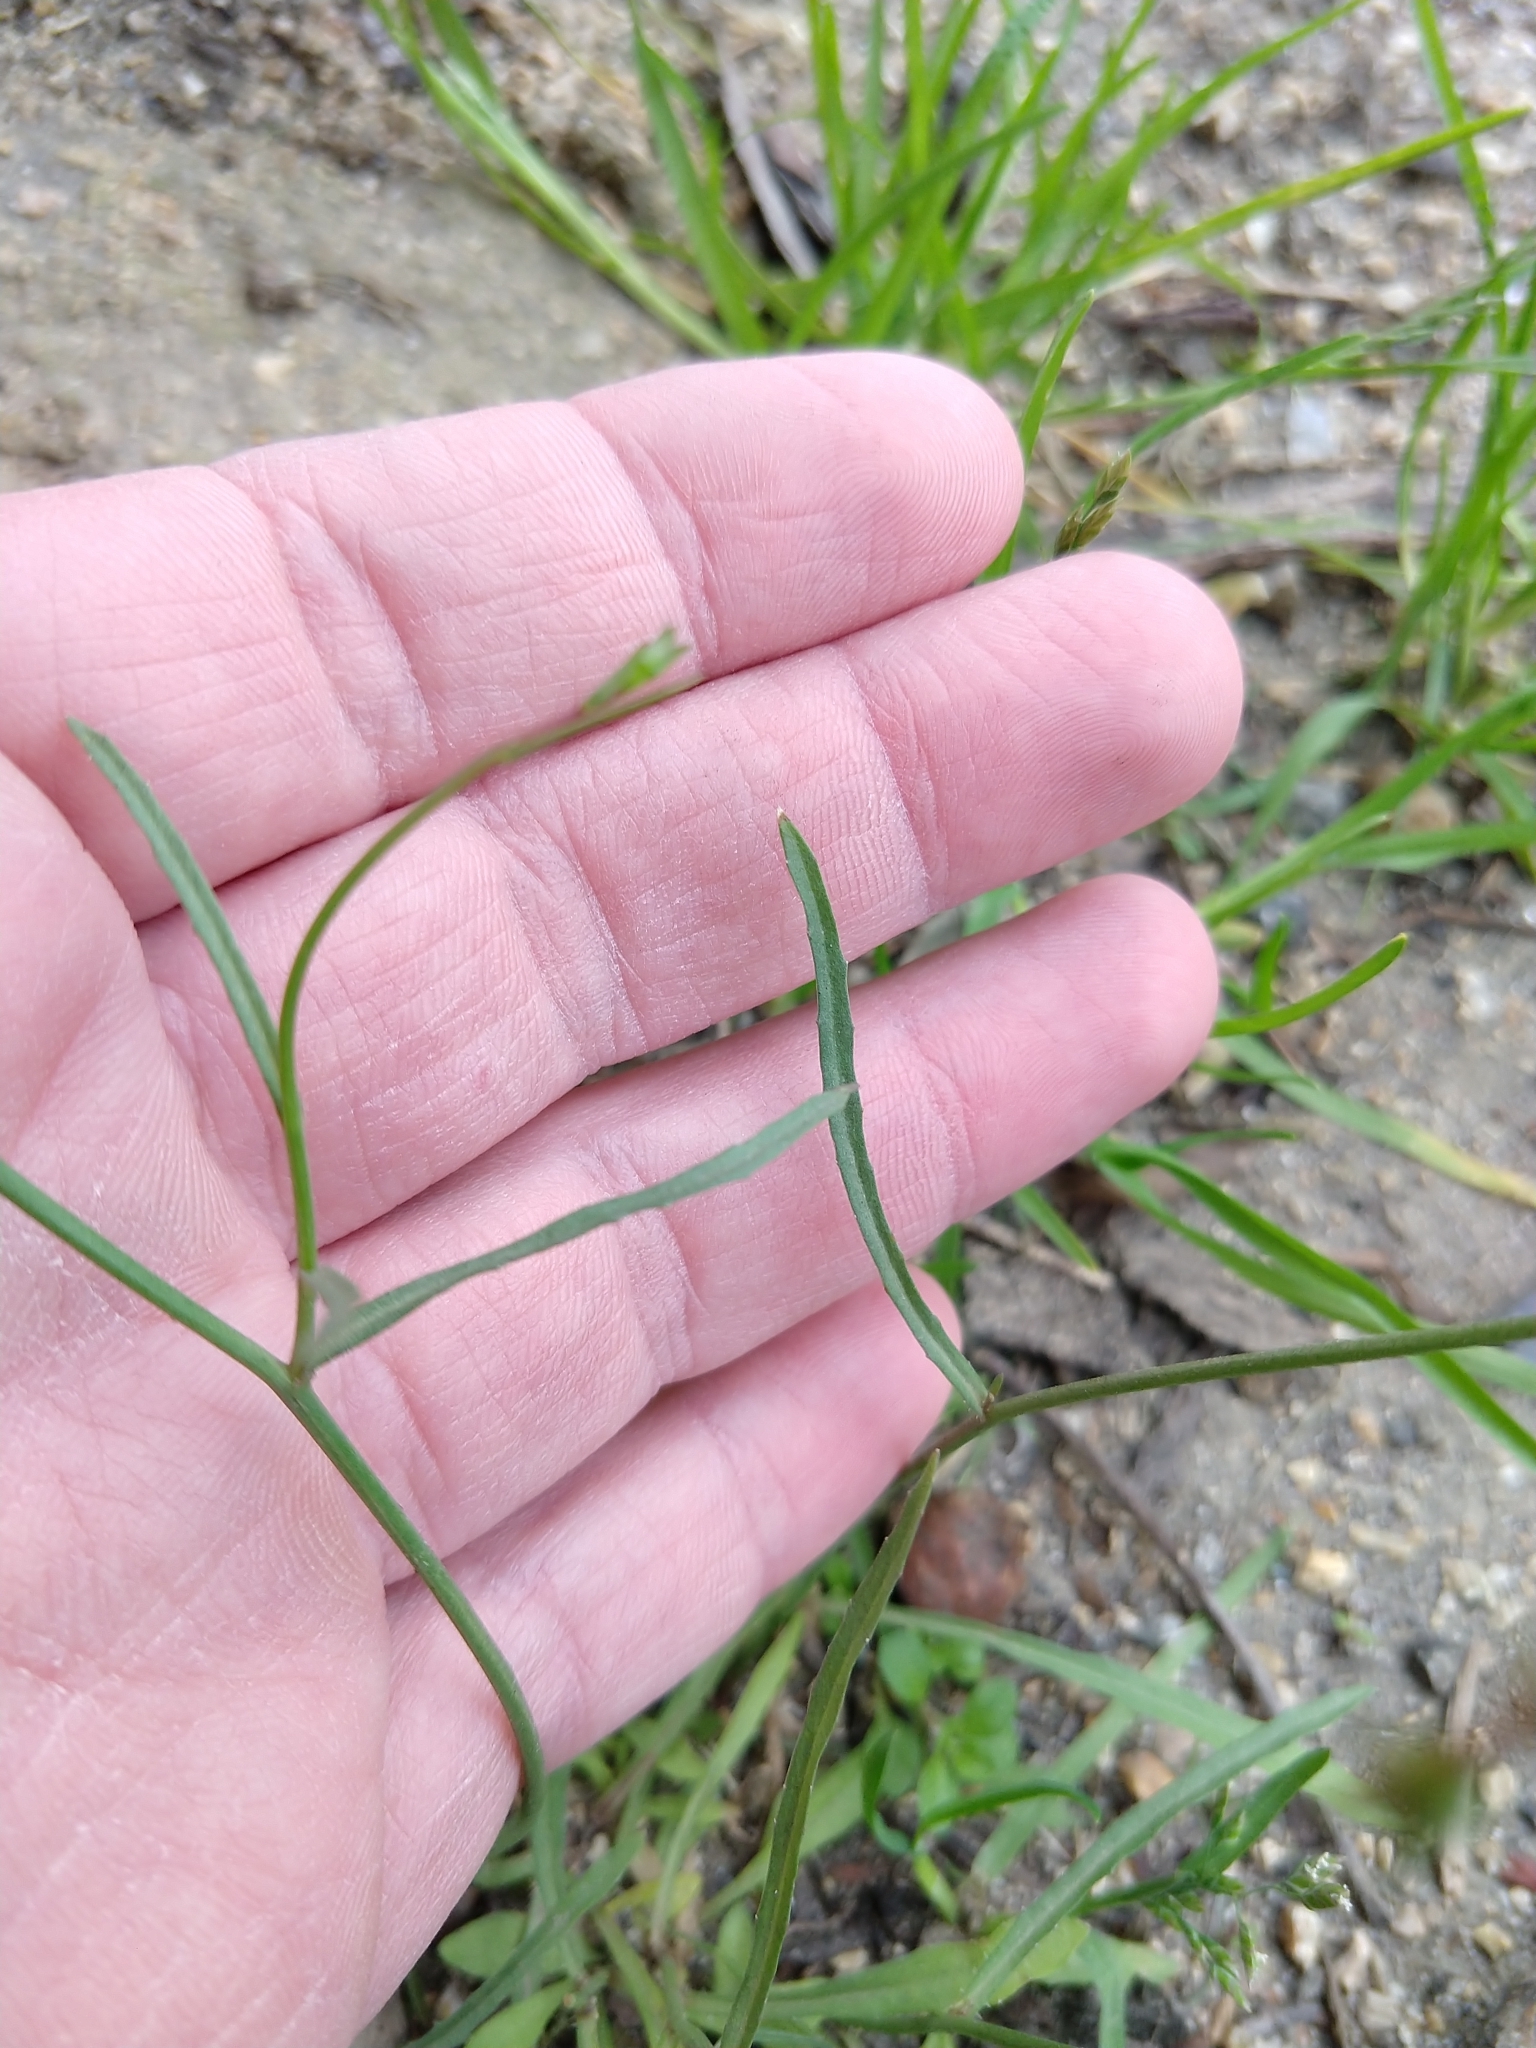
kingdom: Plantae
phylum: Tracheophyta
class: Magnoliopsida
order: Asterales
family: Campanulaceae
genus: Wahlenbergia
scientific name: Wahlenbergia marginata
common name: Southern rockbell
